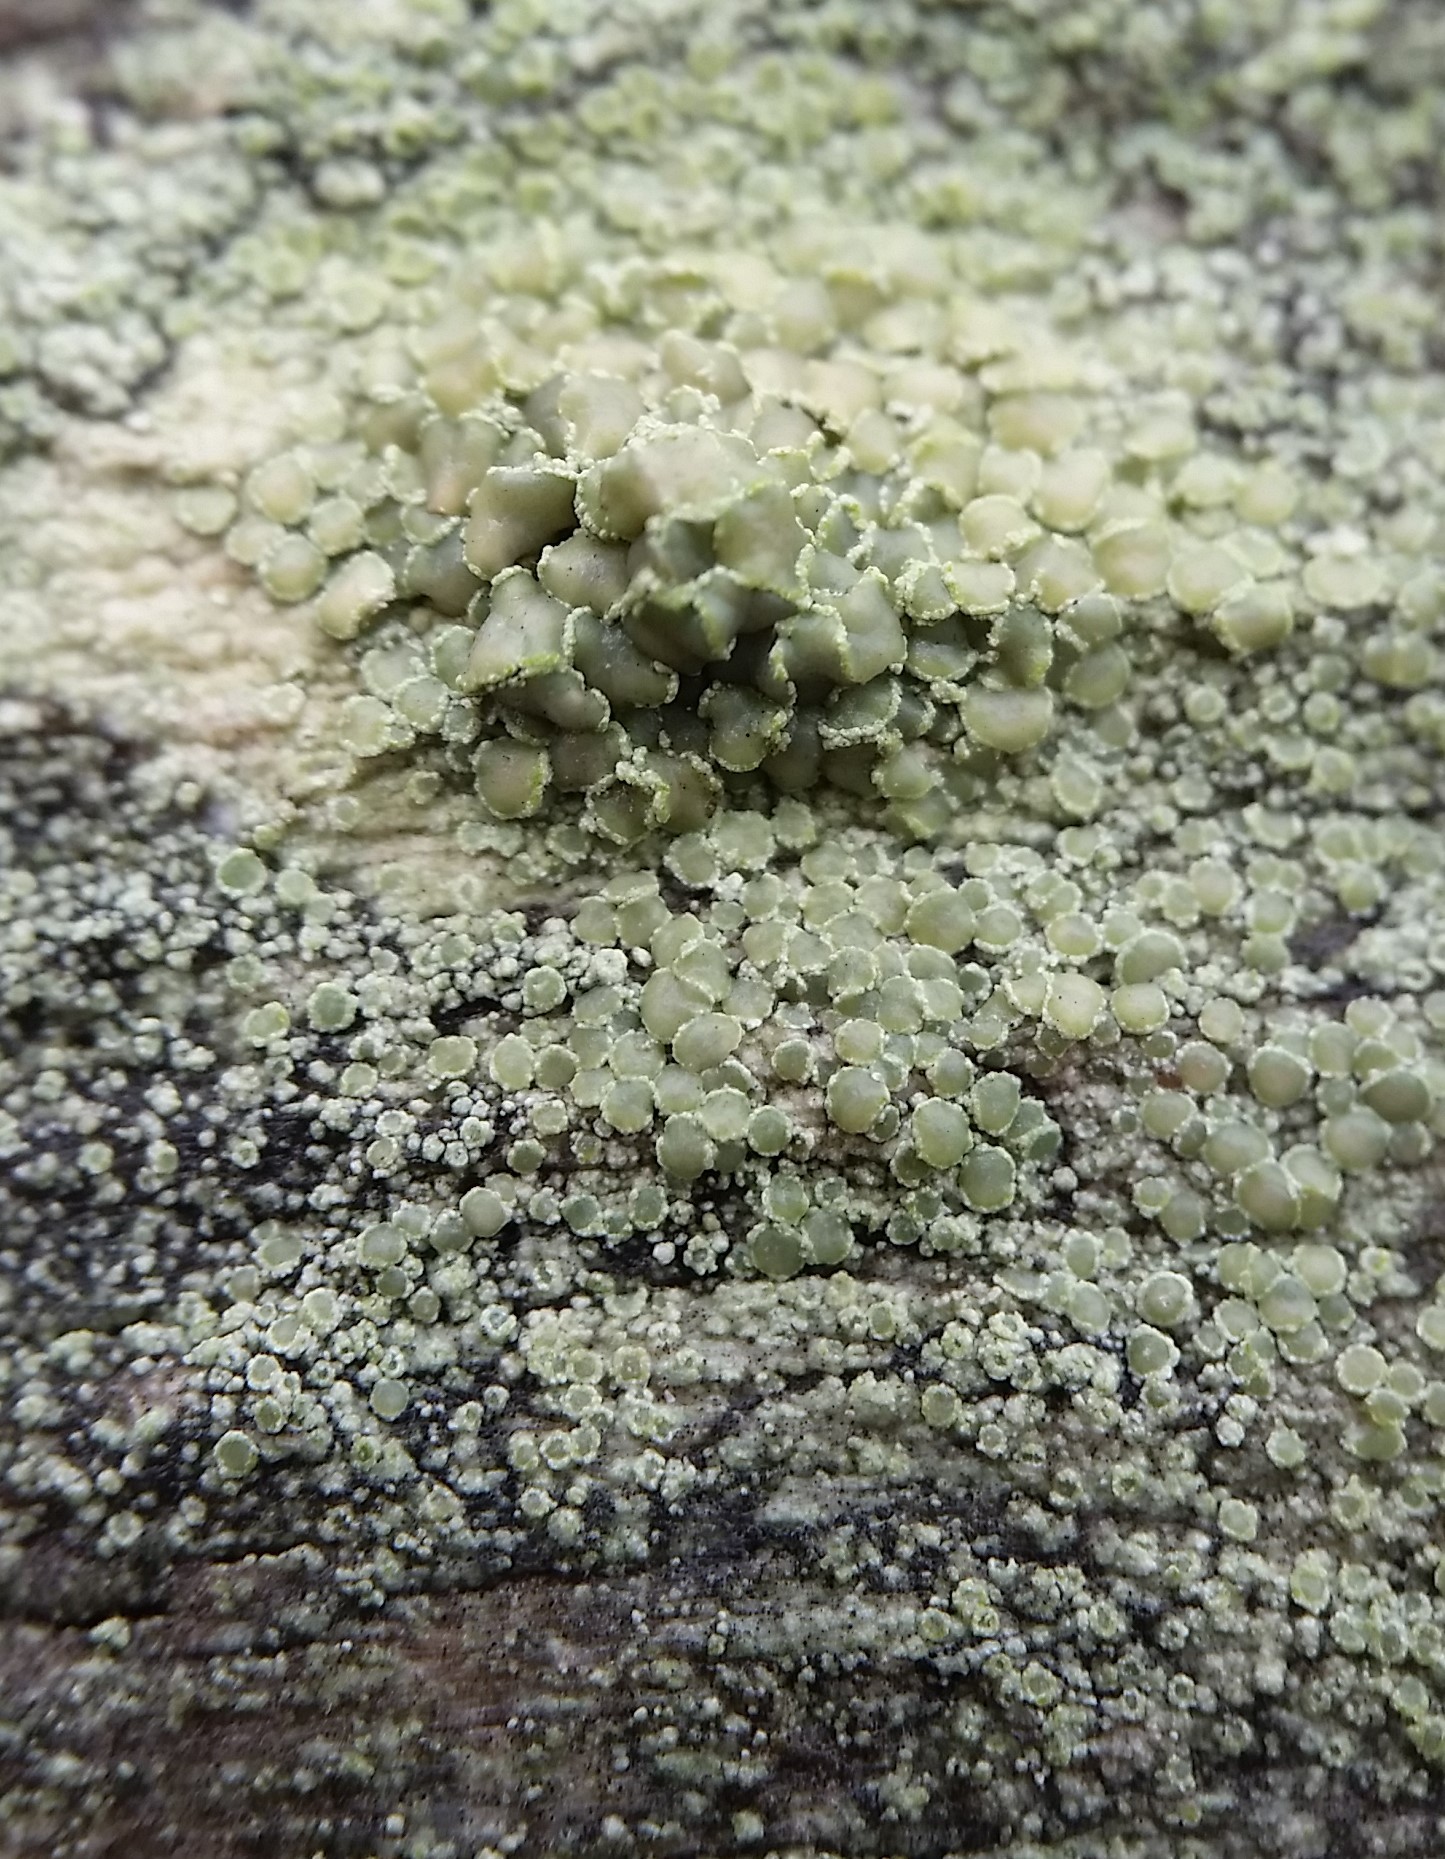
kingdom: Fungi
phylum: Ascomycota
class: Lecanoromycetes
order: Lecanorales
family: Lecanoraceae
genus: Lecanora
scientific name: Lecanora strobilina
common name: Mealy rim-lichen
